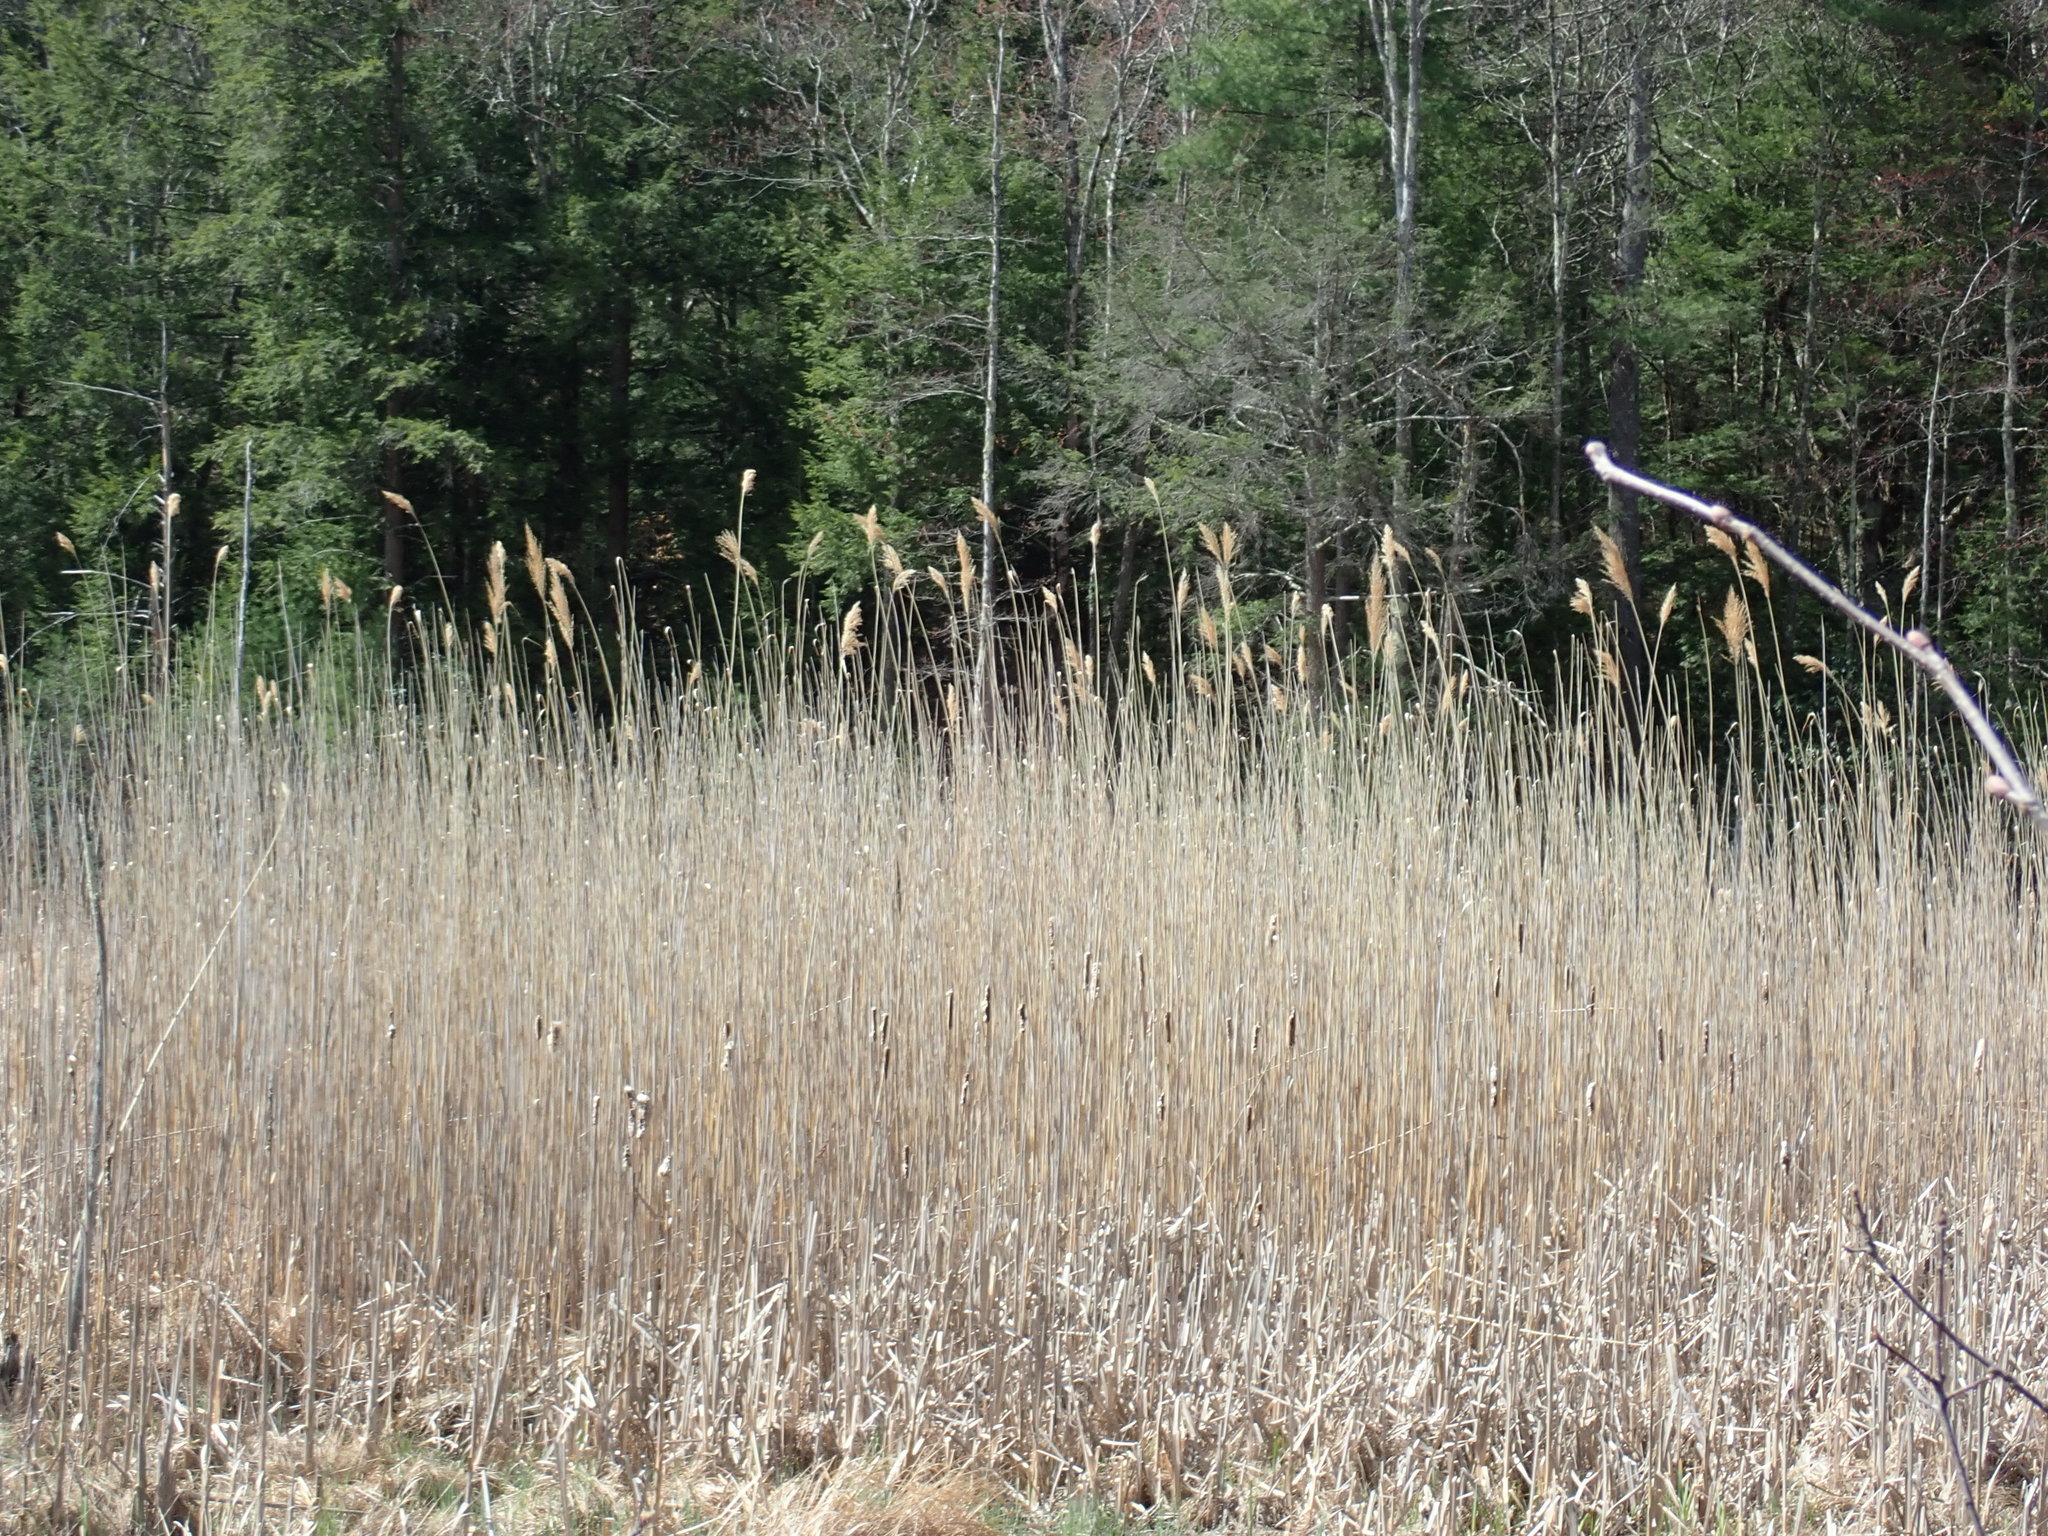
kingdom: Plantae
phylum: Tracheophyta
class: Liliopsida
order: Poales
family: Poaceae
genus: Phragmites
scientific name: Phragmites australis
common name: Common reed
